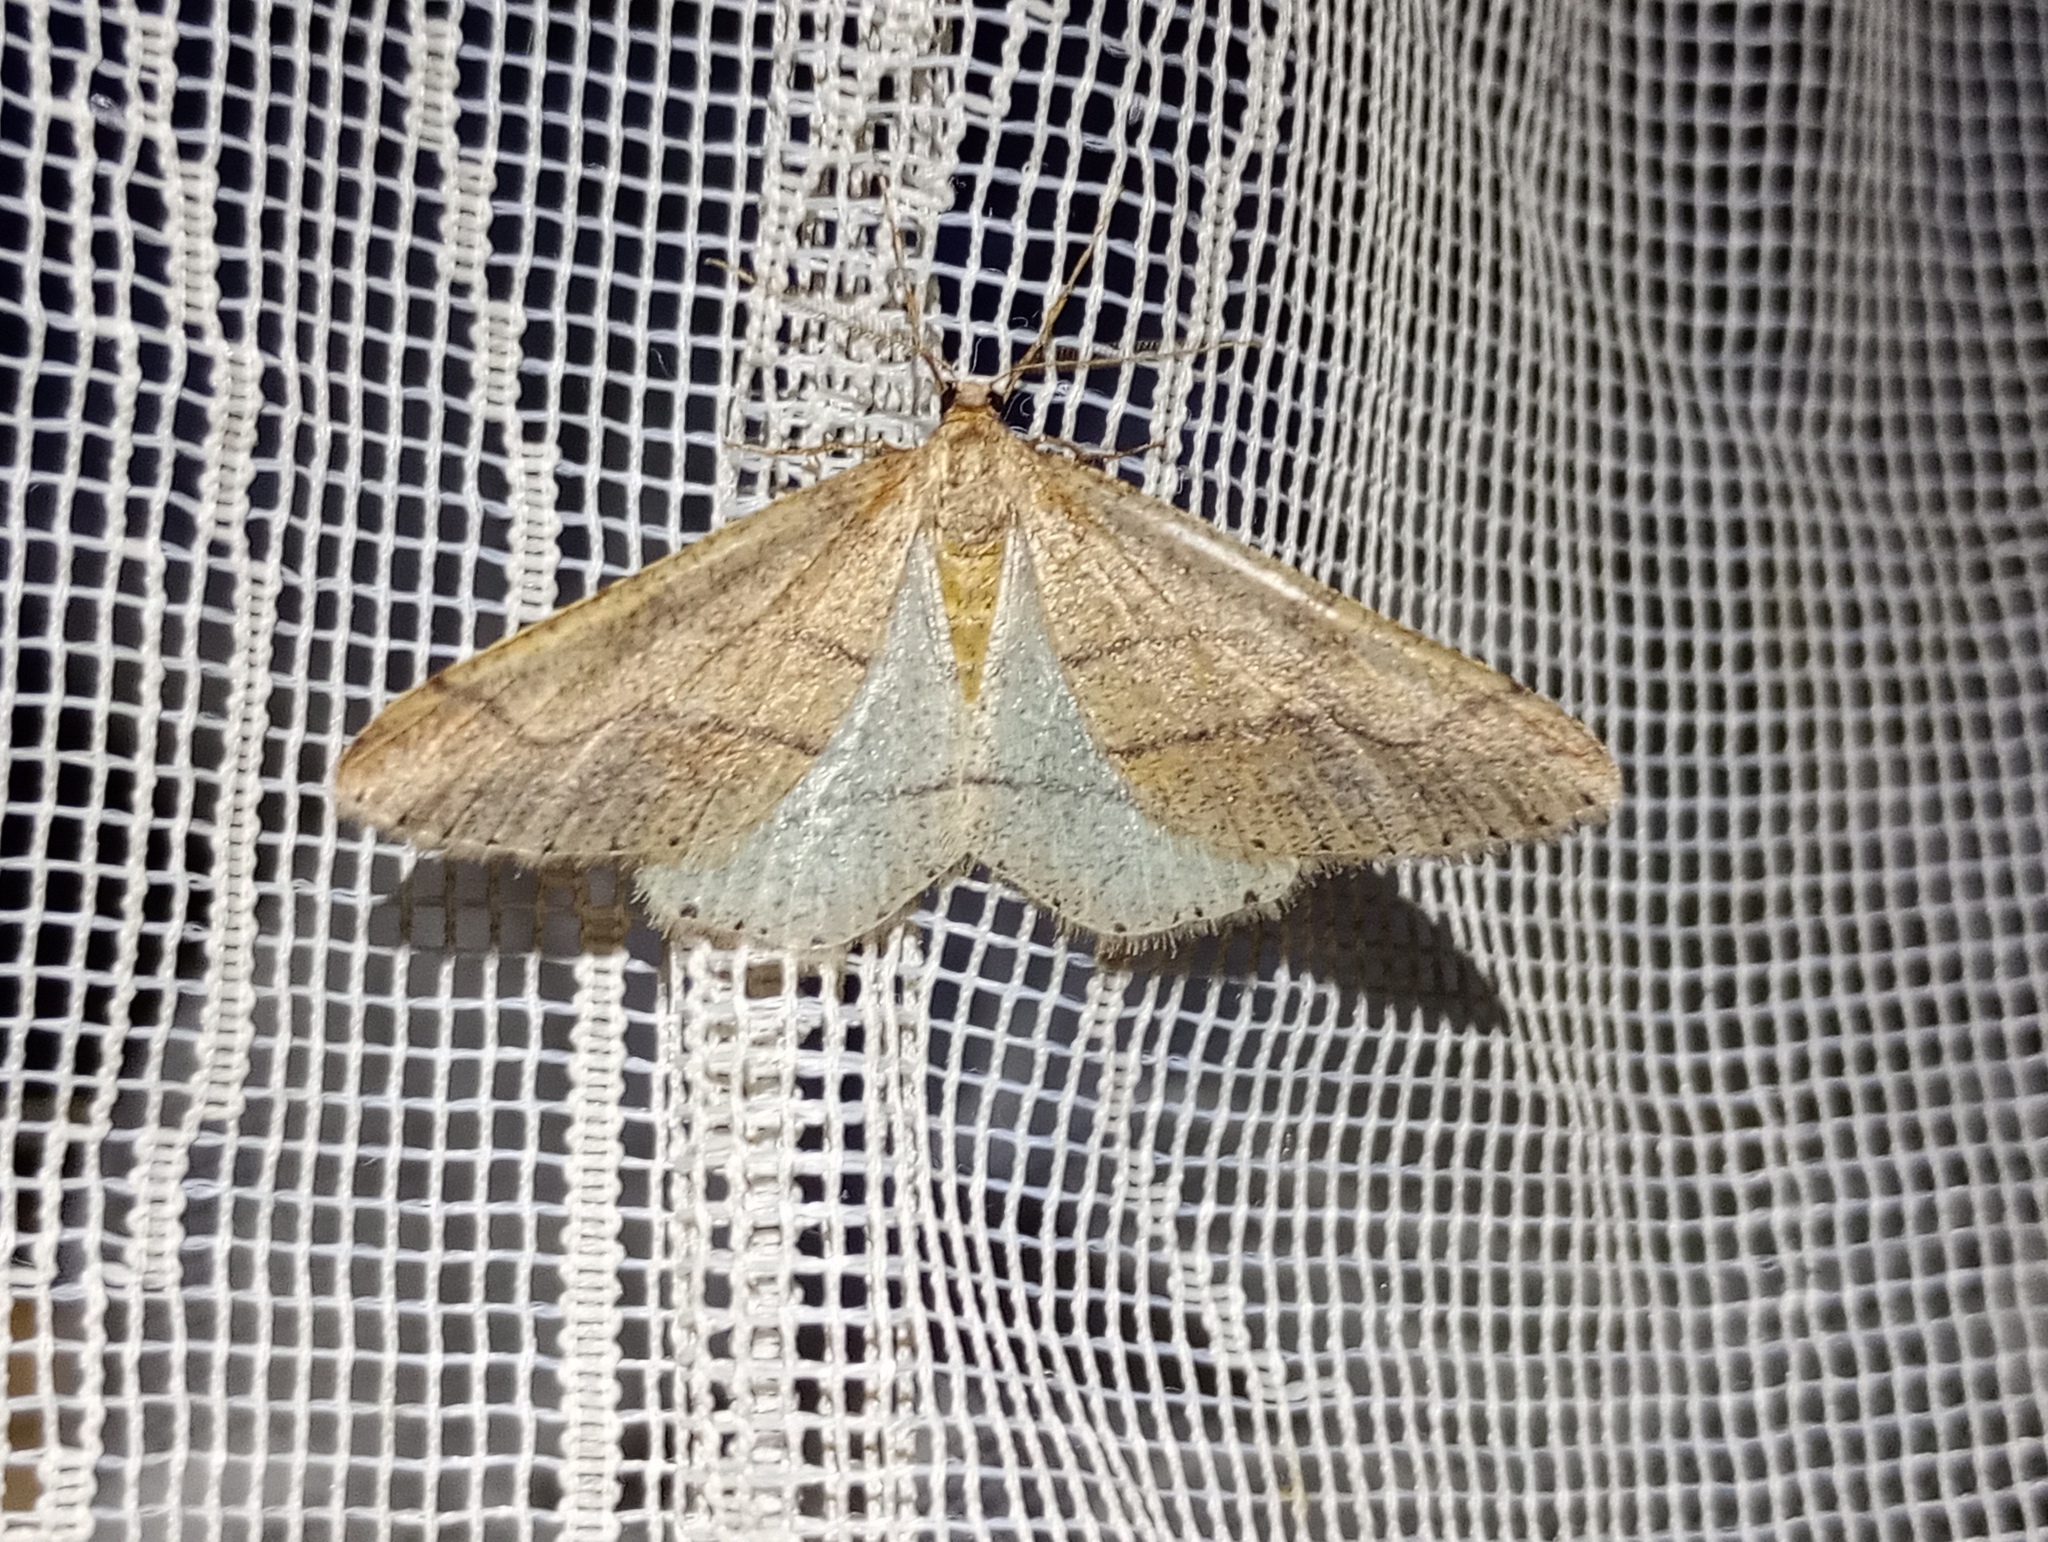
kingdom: Animalia
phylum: Arthropoda
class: Insecta
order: Lepidoptera
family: Geometridae
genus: Agriopis
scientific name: Agriopis marginaria
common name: Dotted border
